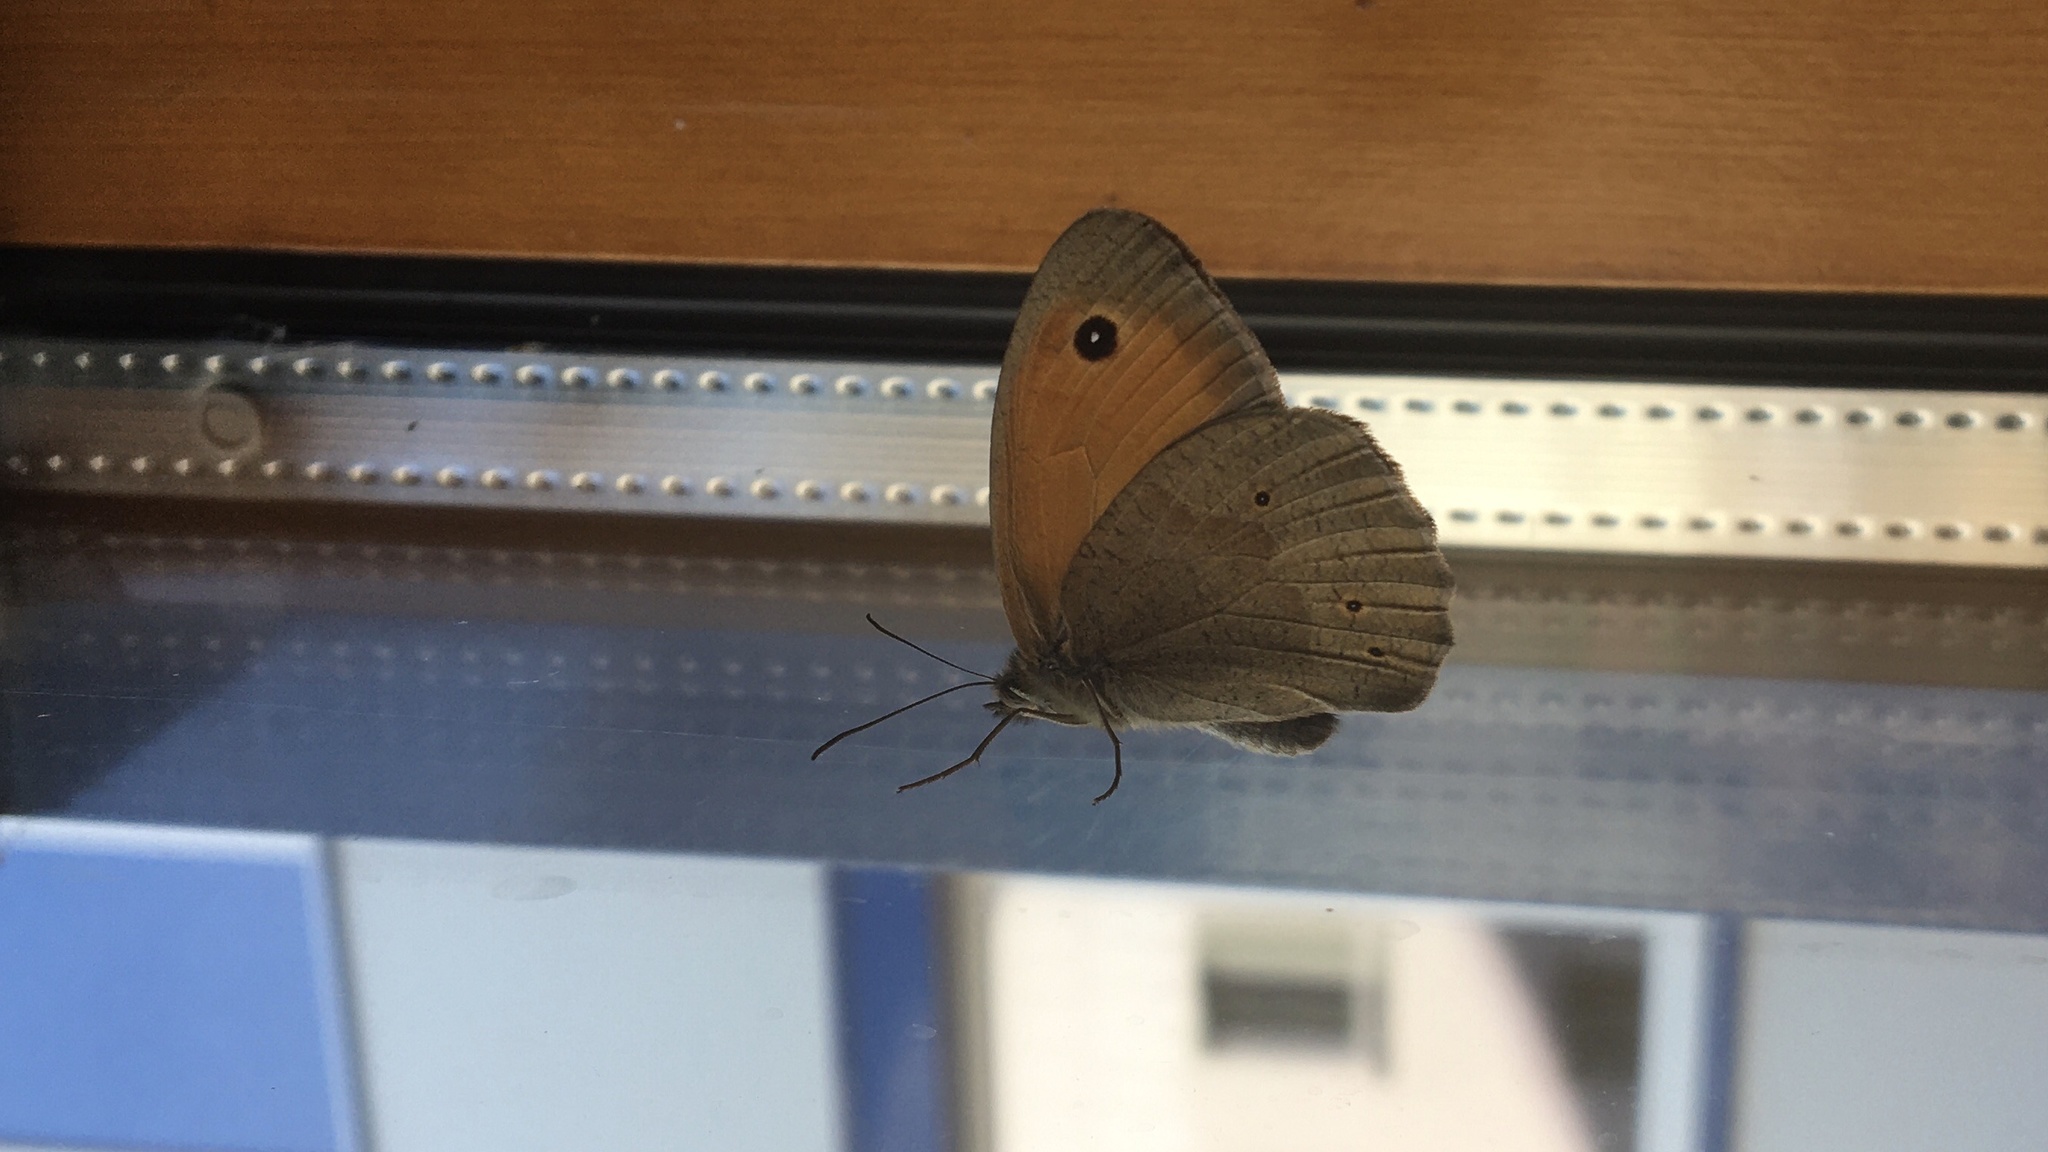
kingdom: Animalia
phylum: Arthropoda
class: Insecta
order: Lepidoptera
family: Nymphalidae
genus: Maniola
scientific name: Maniola jurtina
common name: Meadow brown
